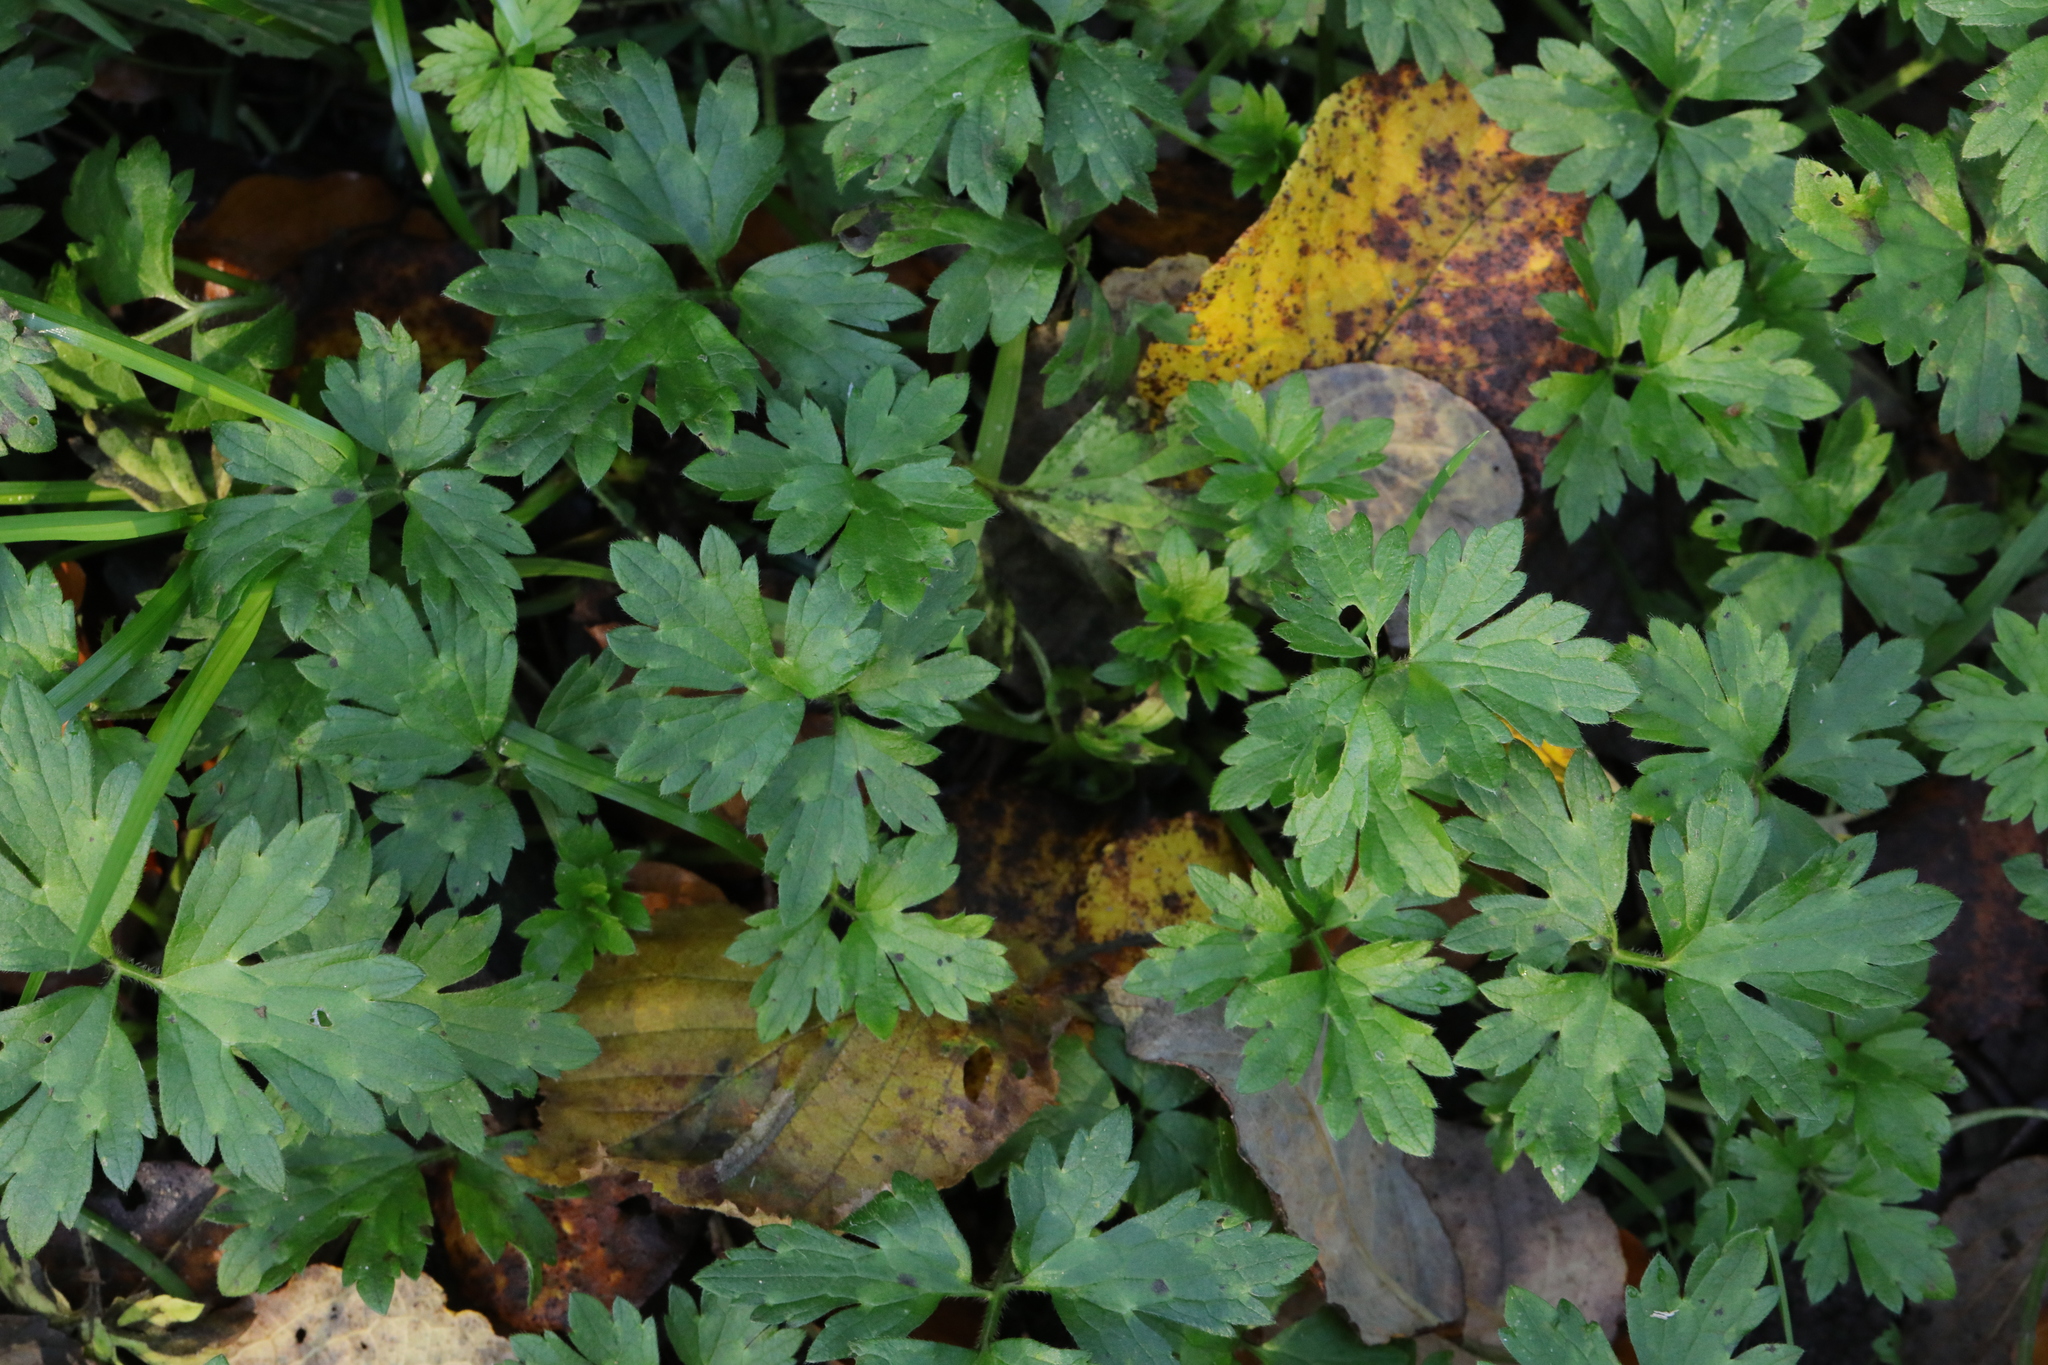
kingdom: Plantae
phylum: Tracheophyta
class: Magnoliopsida
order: Ranunculales
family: Ranunculaceae
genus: Ranunculus
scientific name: Ranunculus repens
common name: Creeping buttercup
